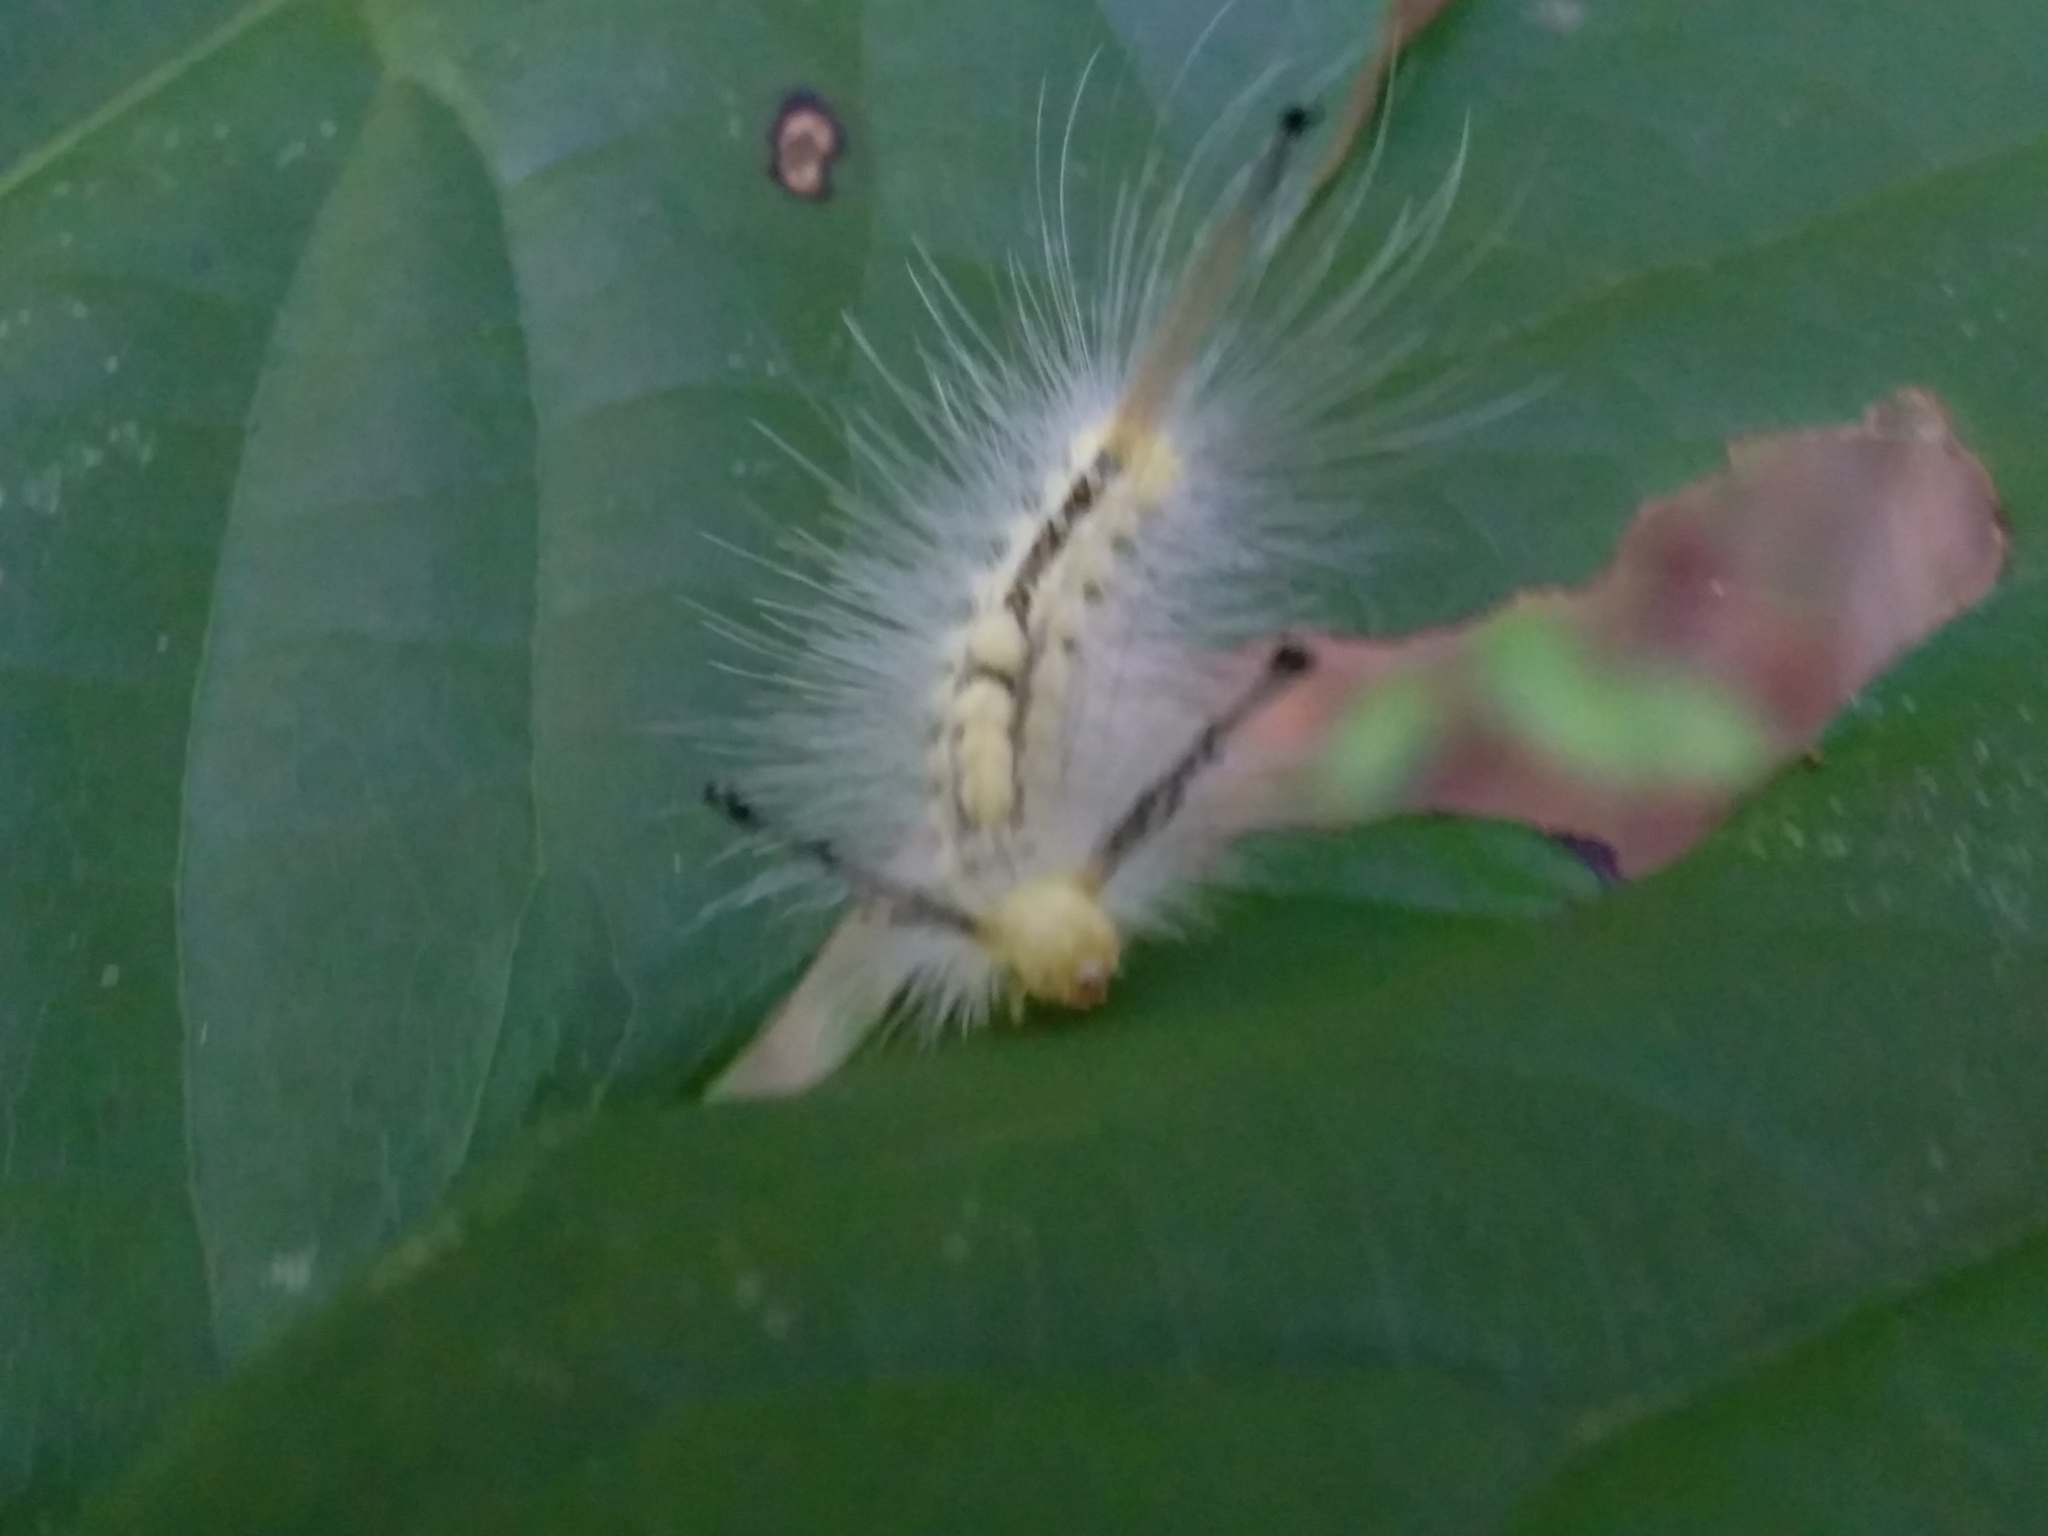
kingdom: Animalia
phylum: Arthropoda
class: Insecta
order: Lepidoptera
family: Erebidae
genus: Orgyia
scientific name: Orgyia definita
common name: Definite tussock moth
